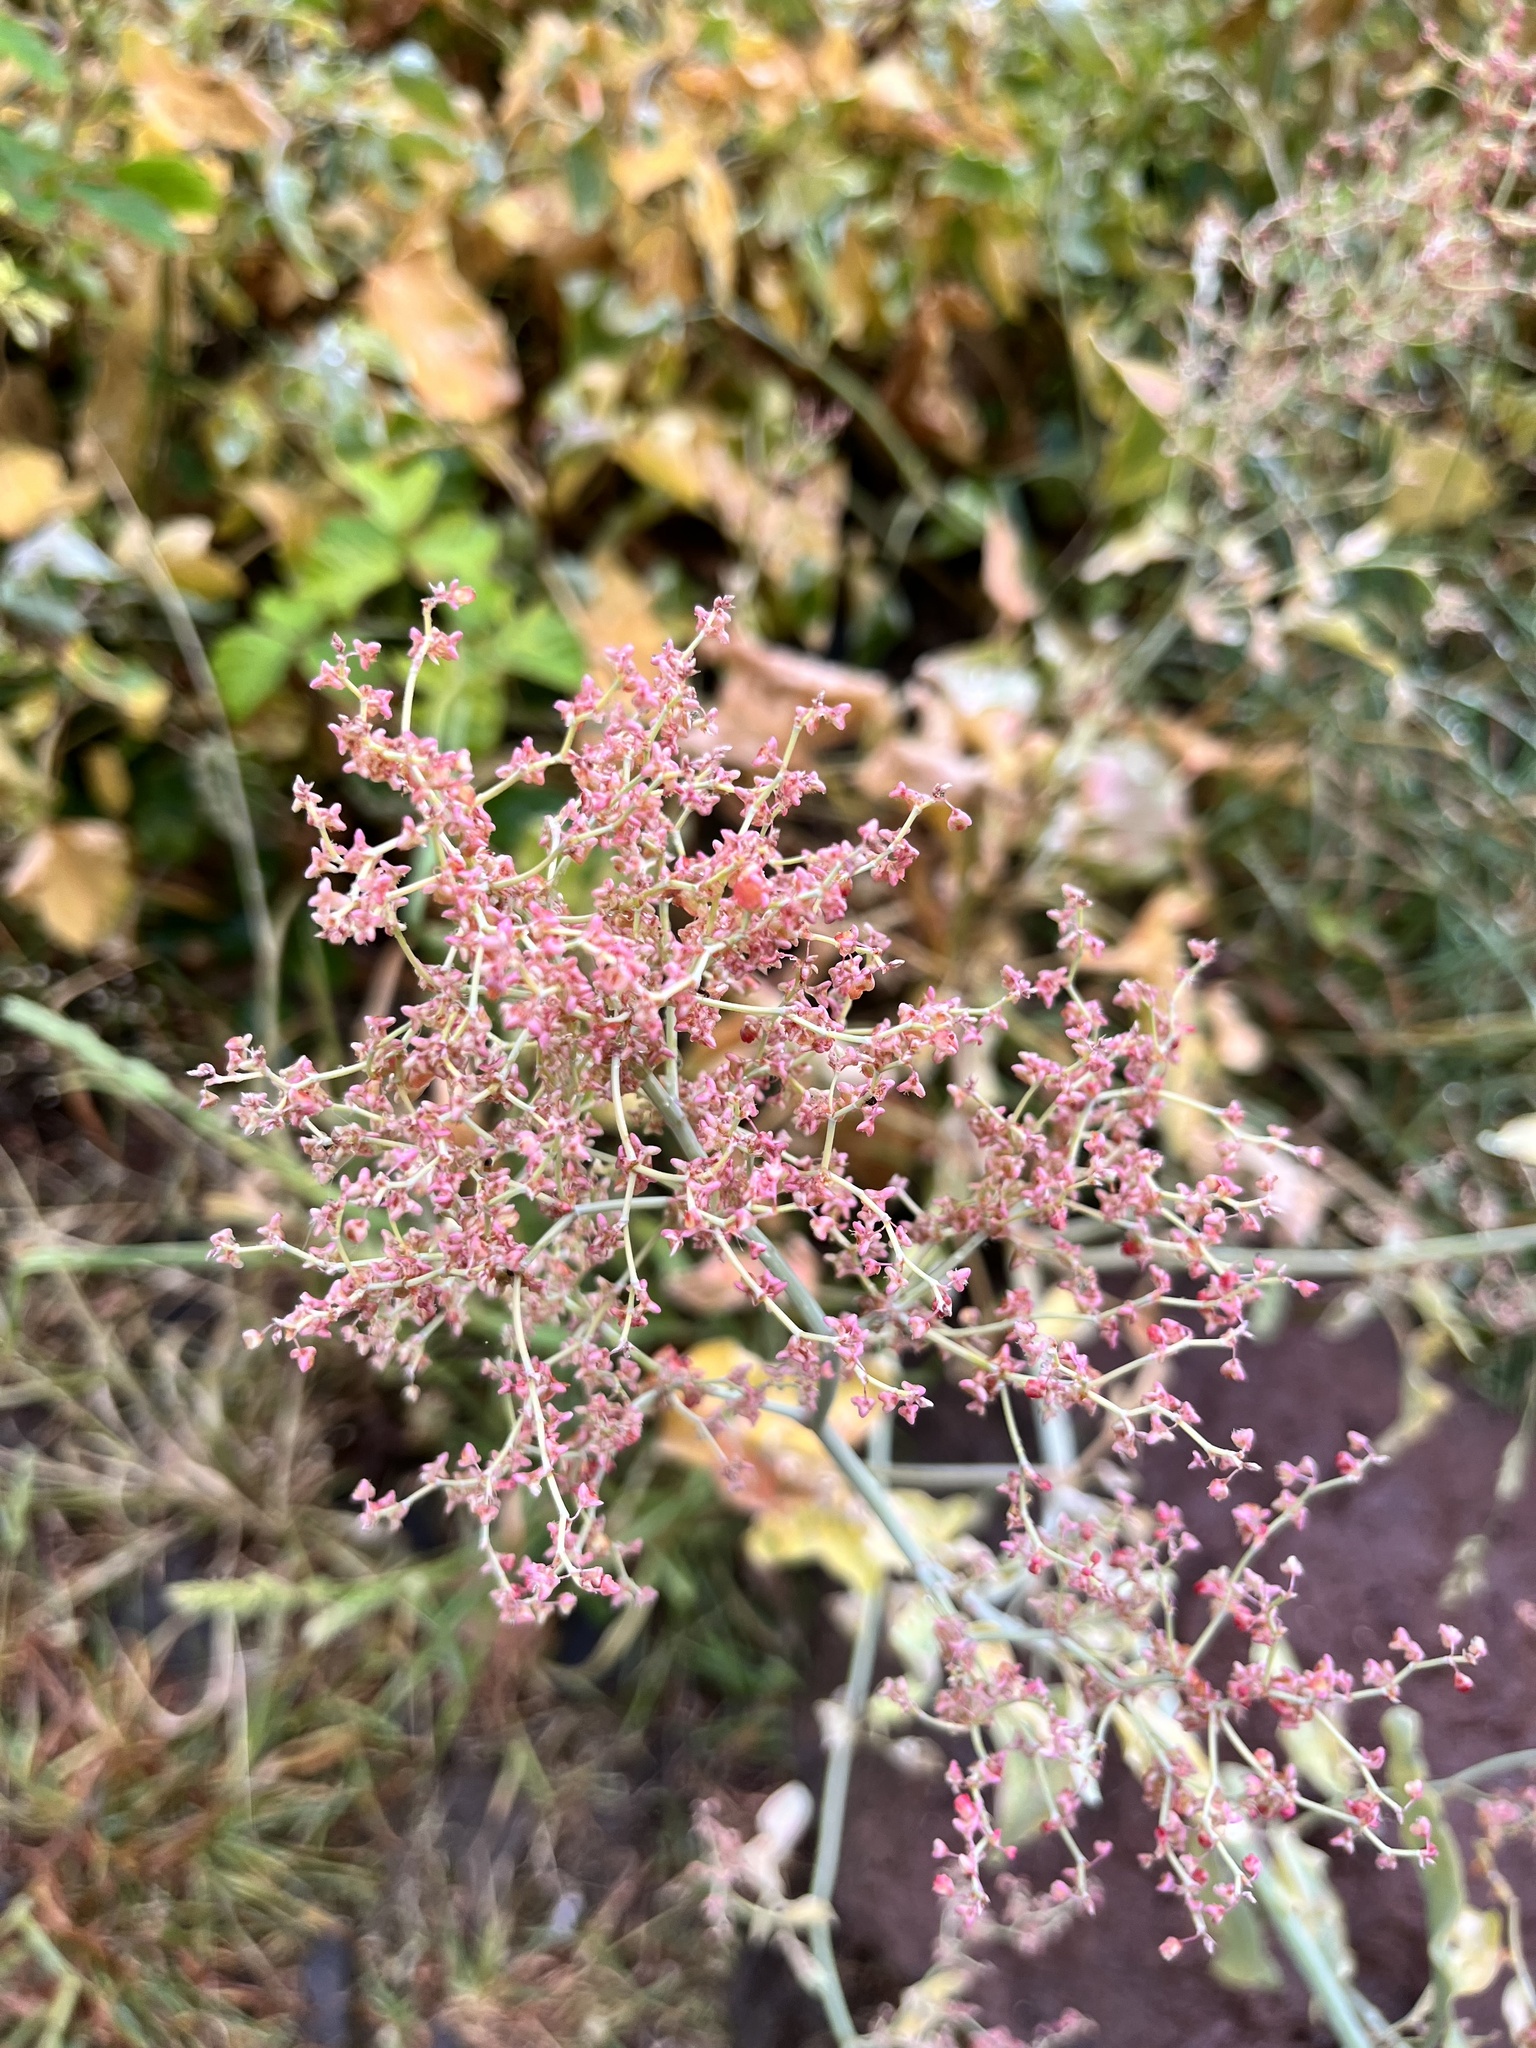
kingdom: Plantae
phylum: Tracheophyta
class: Magnoliopsida
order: Caryophyllales
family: Polygonaceae
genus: Rumex
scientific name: Rumex maderensis
